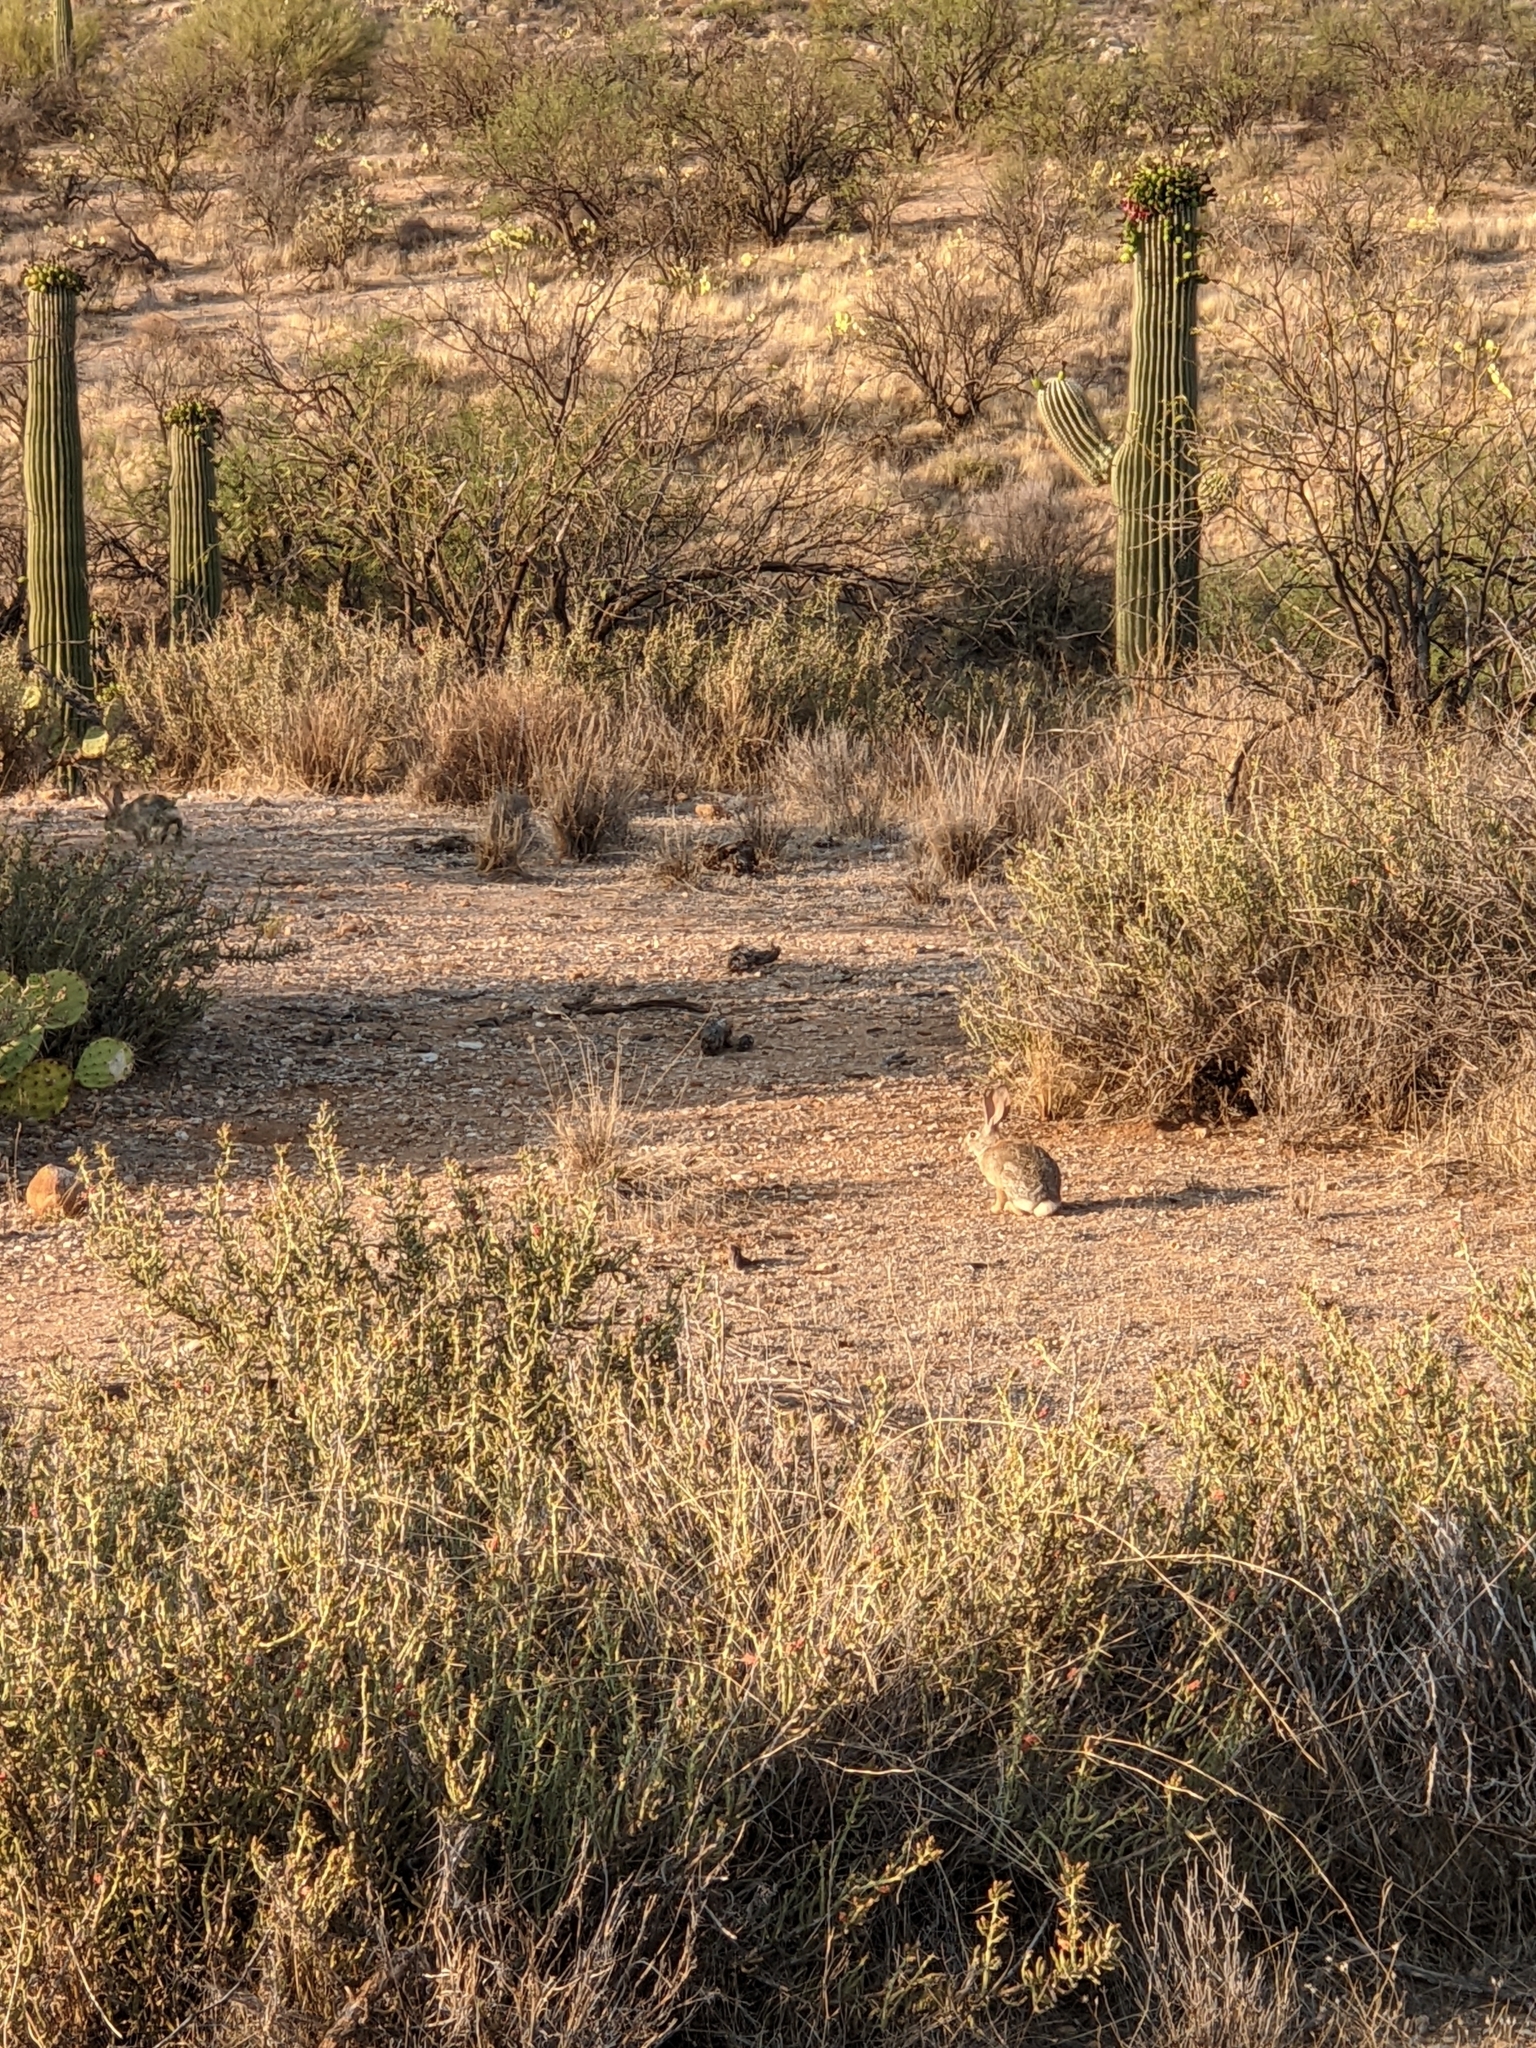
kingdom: Animalia
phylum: Chordata
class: Mammalia
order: Lagomorpha
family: Leporidae
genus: Sylvilagus
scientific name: Sylvilagus audubonii
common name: Desert cottontail
